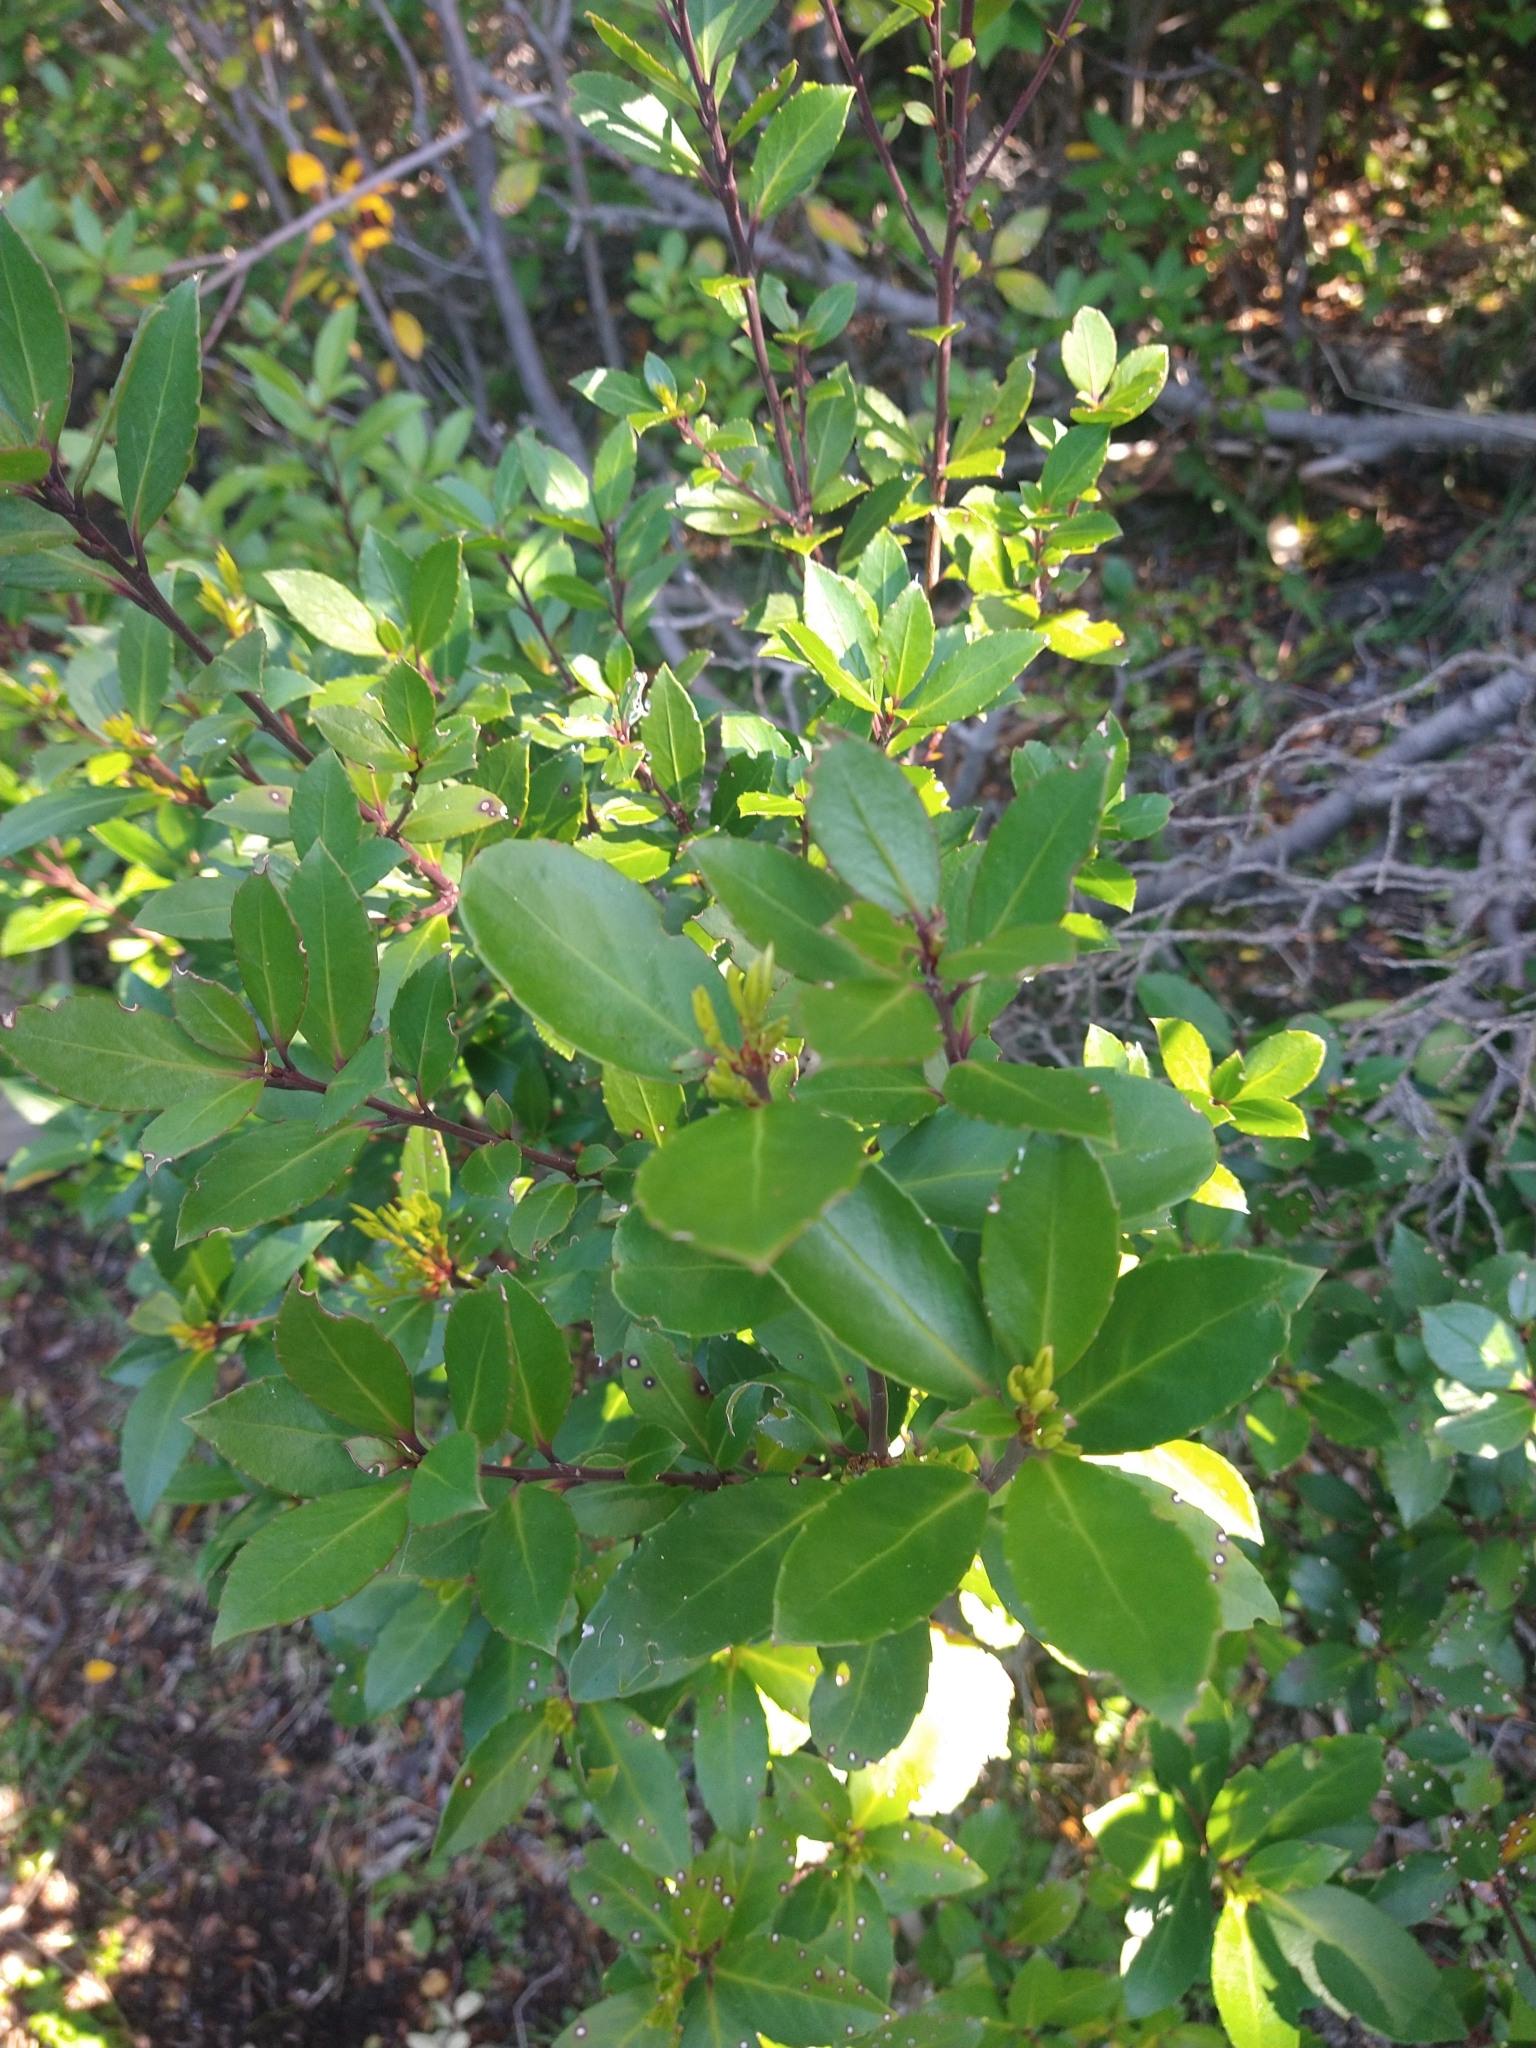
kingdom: Plantae
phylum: Tracheophyta
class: Magnoliopsida
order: Canellales
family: Winteraceae
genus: Drimys
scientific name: Drimys winteri
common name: Winter's-bark
